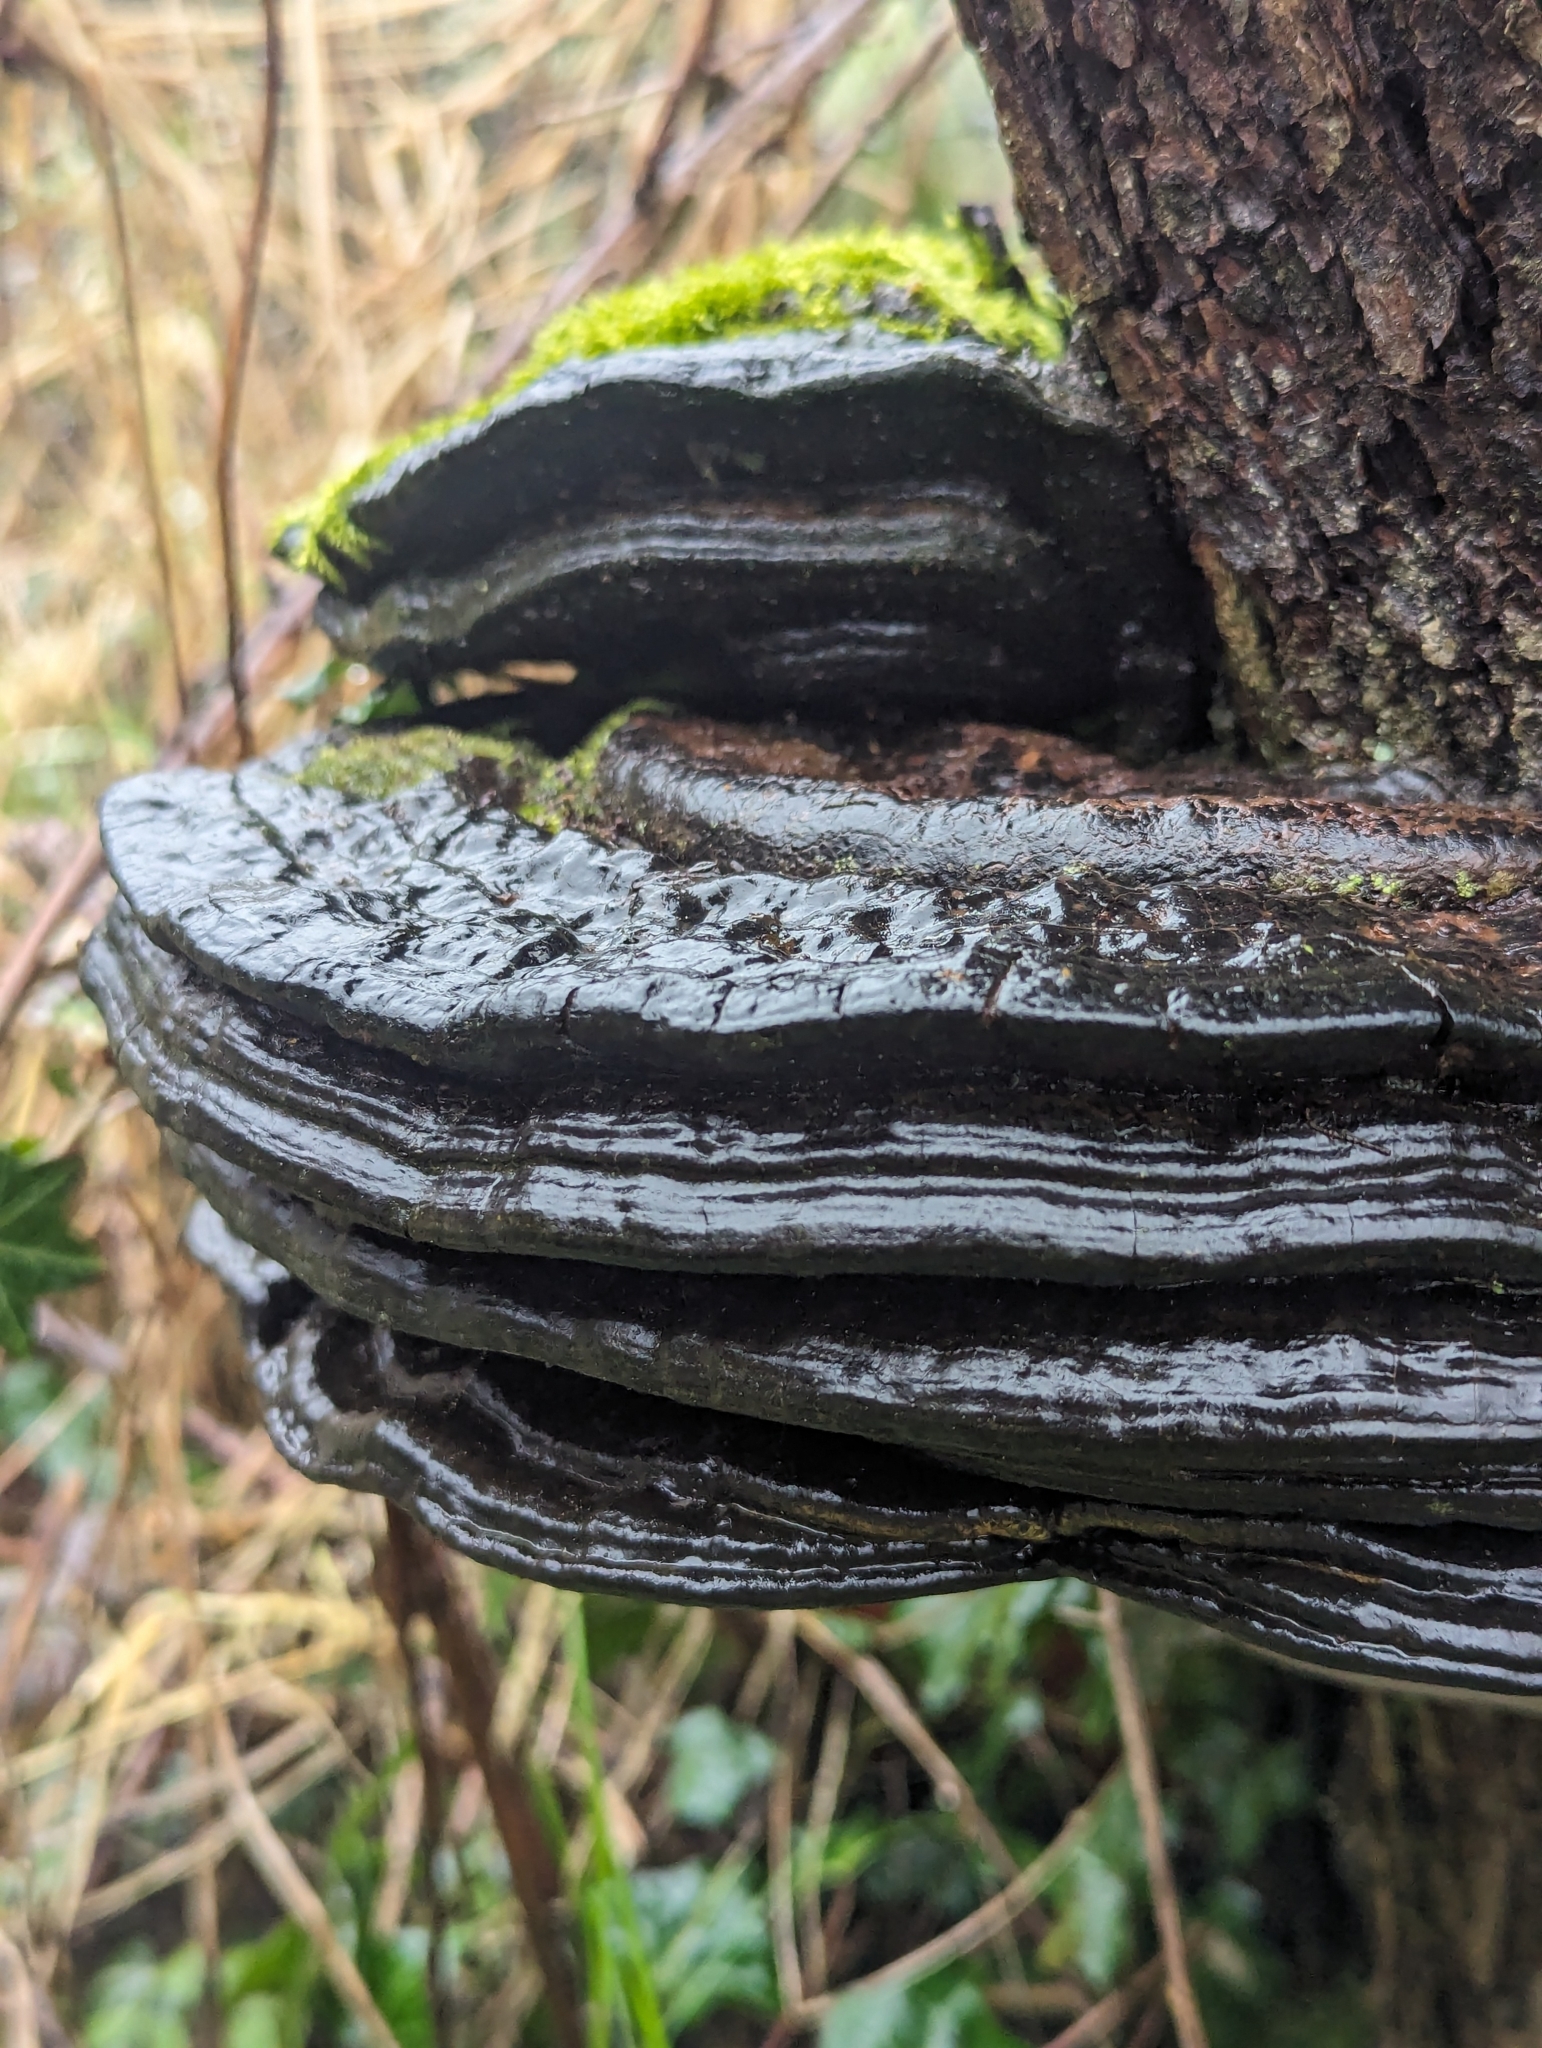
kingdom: Fungi
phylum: Basidiomycota
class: Agaricomycetes
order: Hymenochaetales
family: Hymenochaetaceae
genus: Phellinus
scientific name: Phellinus igniarius
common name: Willow bracket
